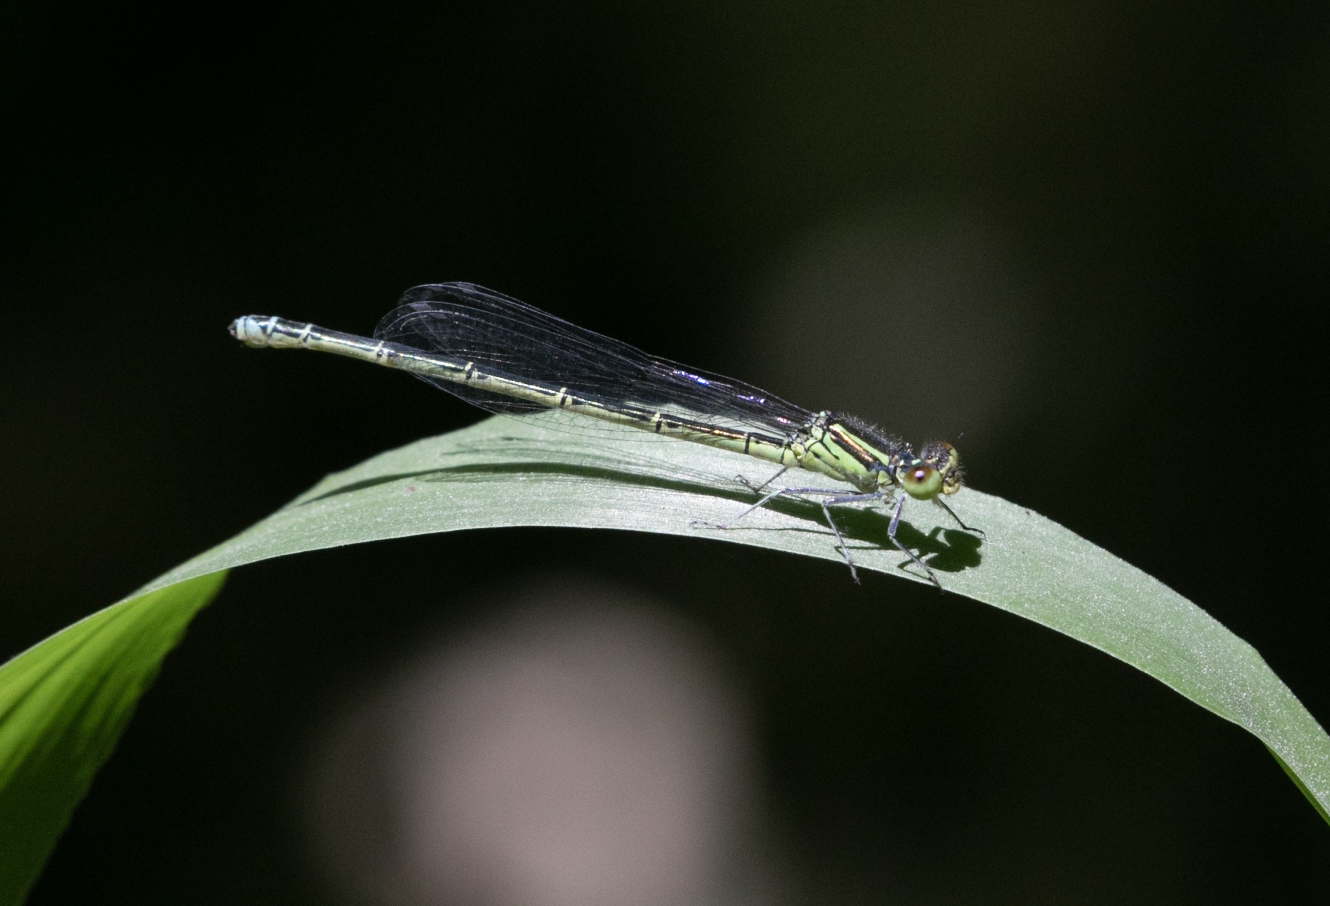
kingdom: Animalia
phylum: Arthropoda
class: Insecta
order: Odonata
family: Coenagrionidae
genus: Erythromma
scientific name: Erythromma viridulum
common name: Small red-eyed damselfly
